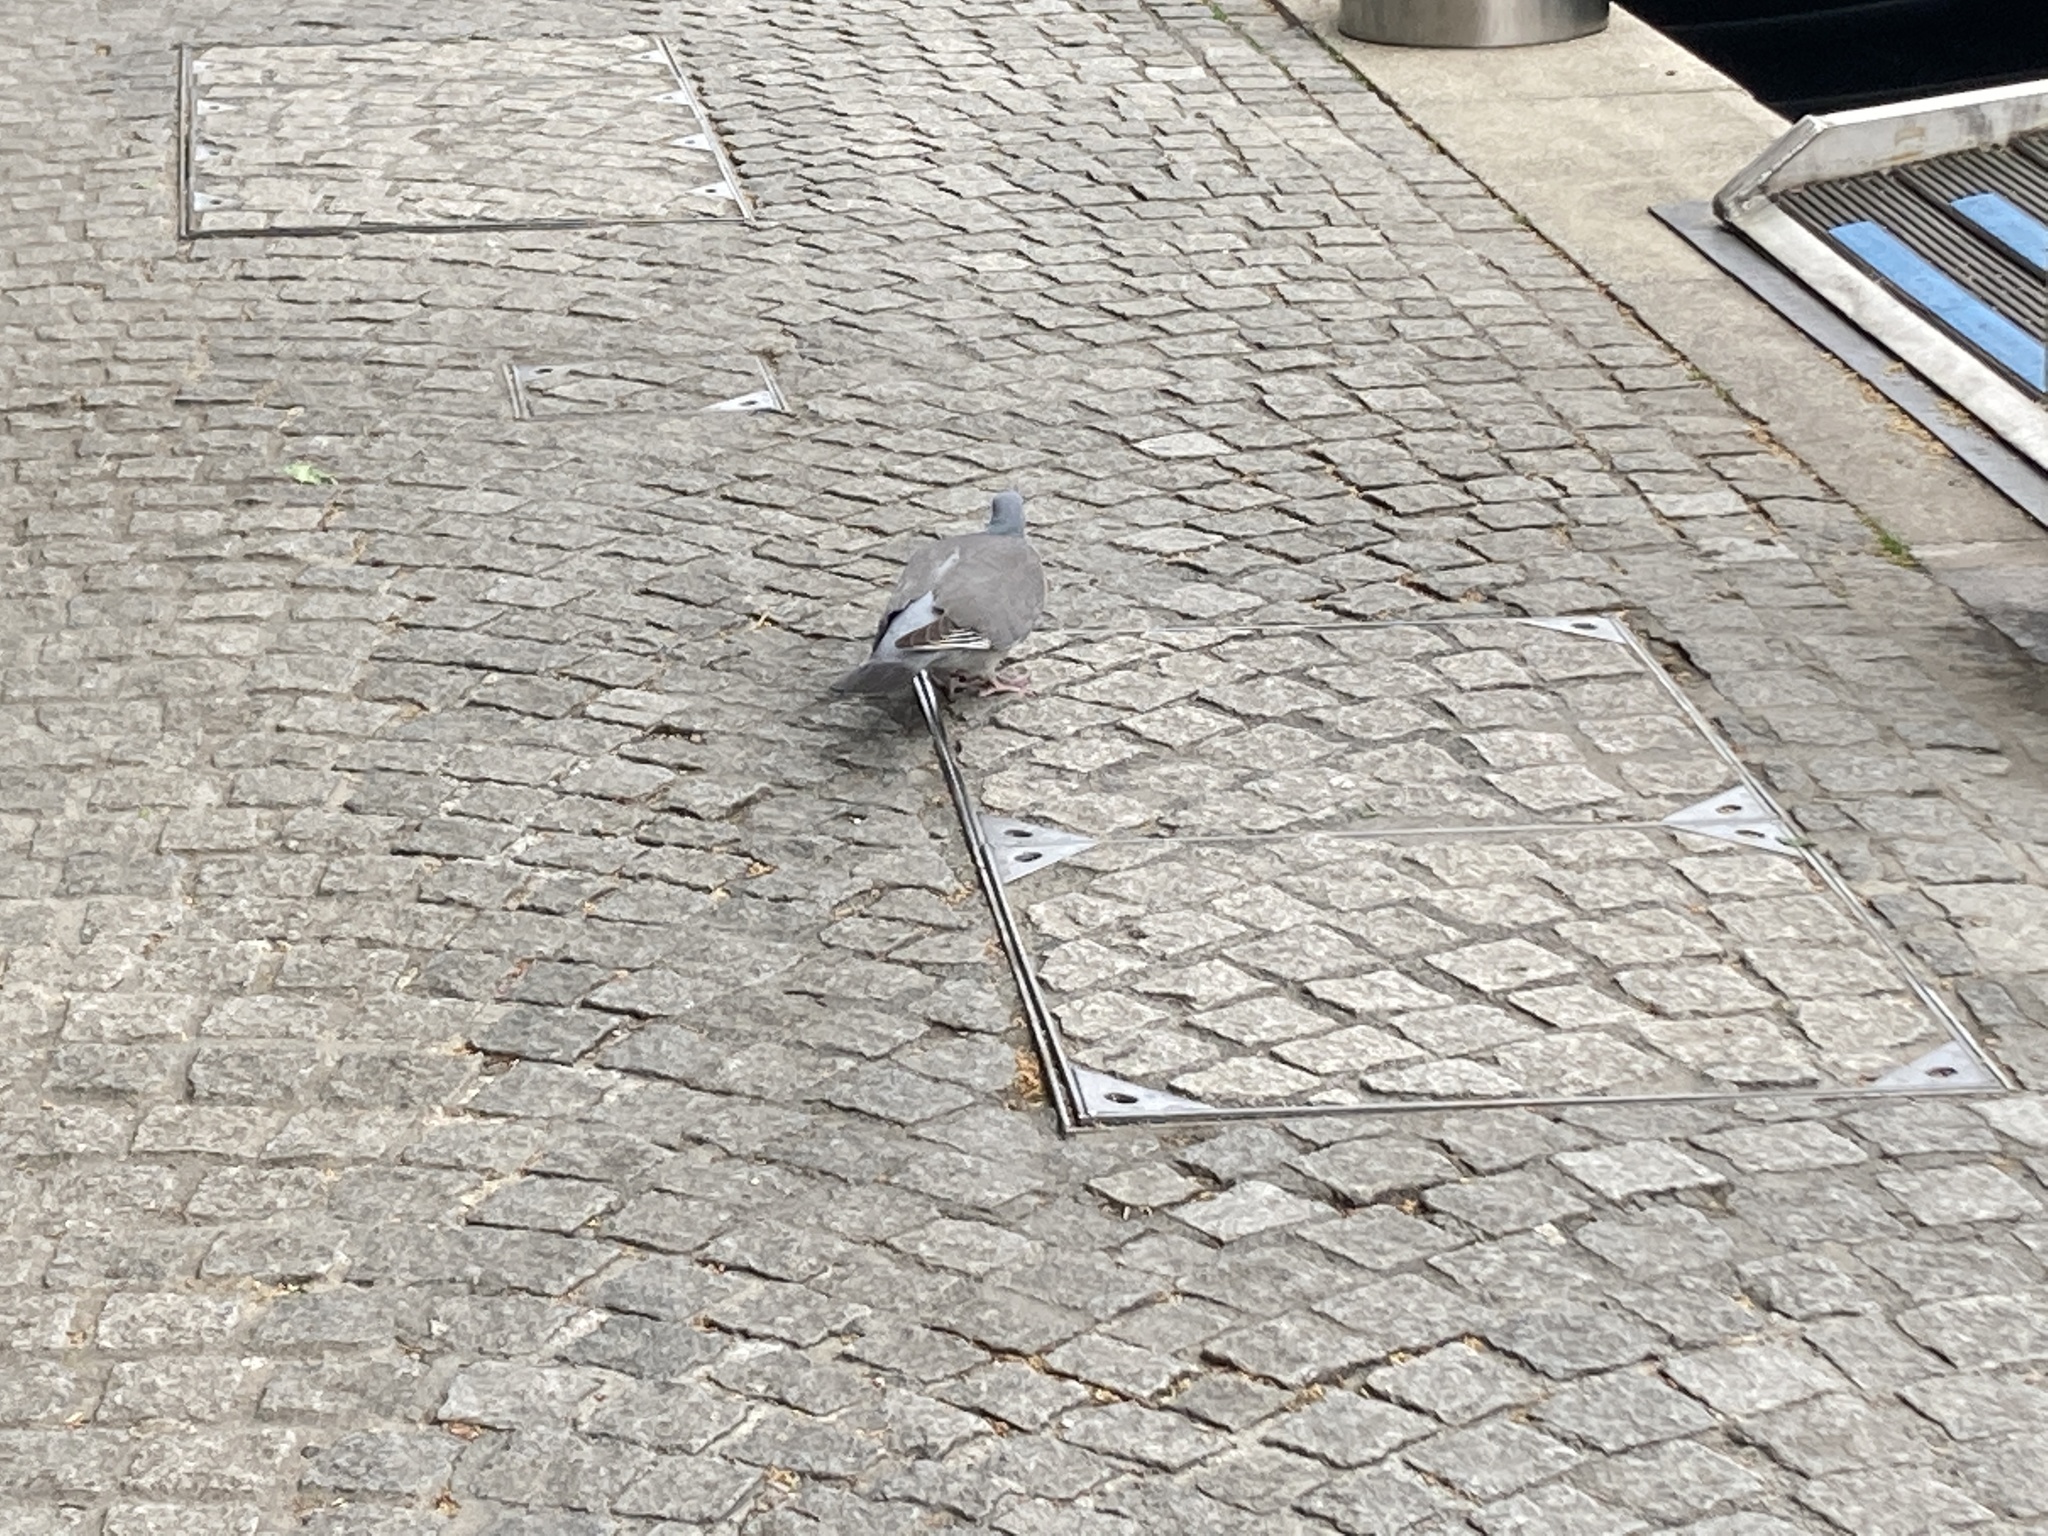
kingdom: Animalia
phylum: Chordata
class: Aves
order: Columbiformes
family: Columbidae
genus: Columba
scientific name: Columba palumbus
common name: Common wood pigeon
